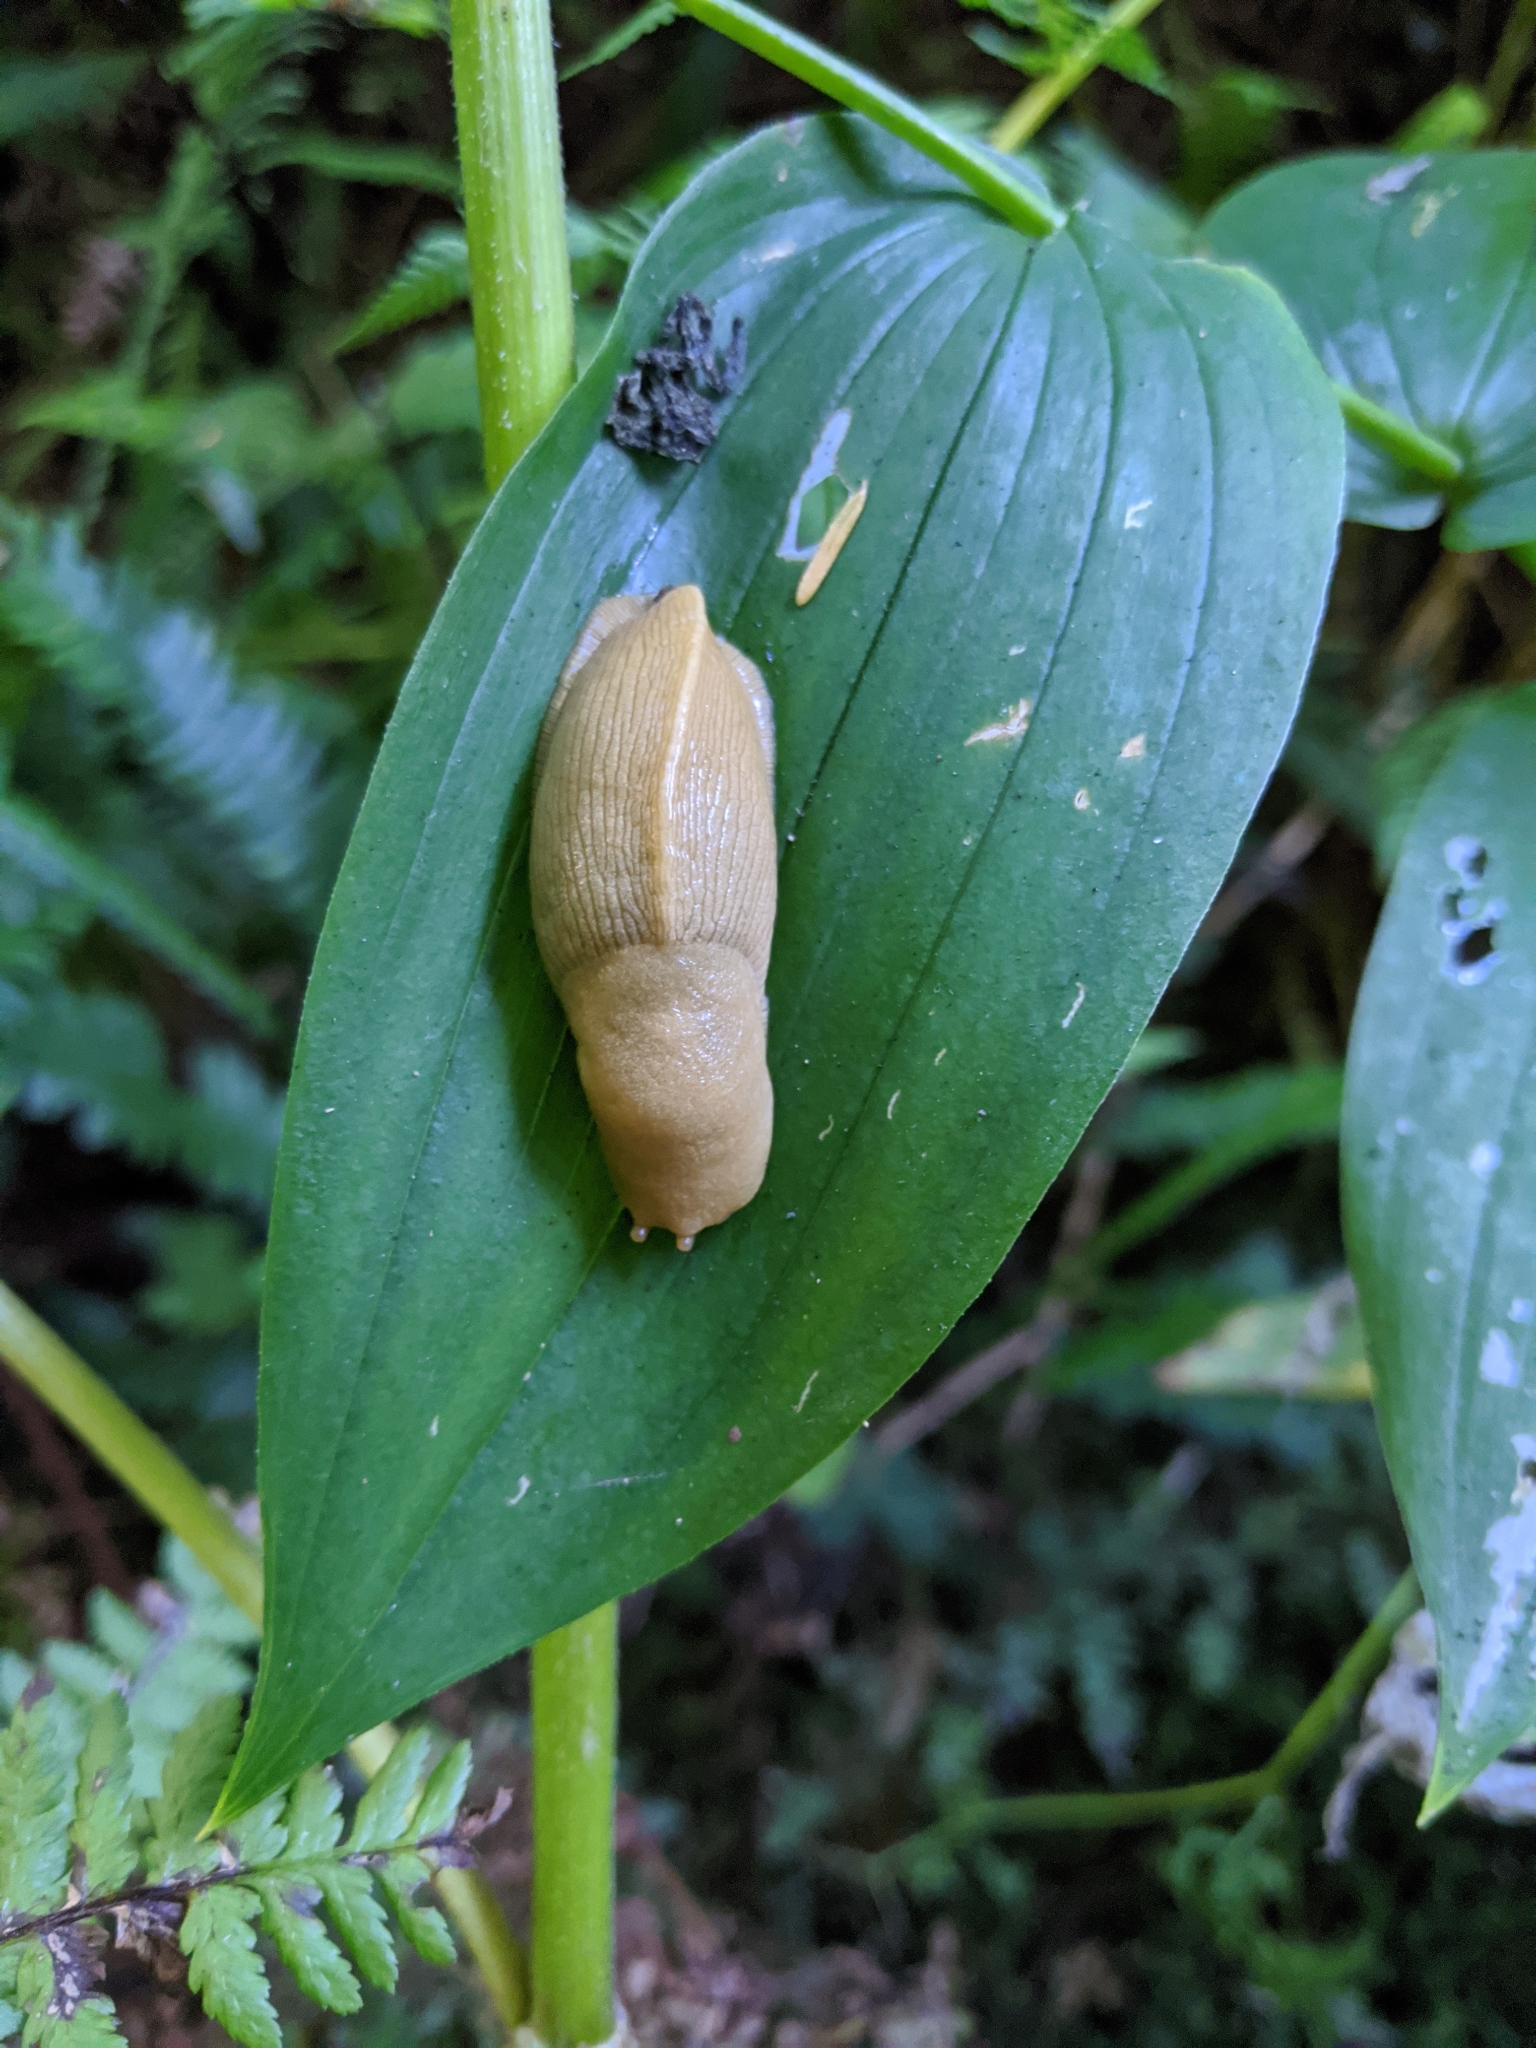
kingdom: Animalia
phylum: Mollusca
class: Gastropoda
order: Stylommatophora
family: Ariolimacidae
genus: Ariolimax
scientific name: Ariolimax columbianus
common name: Pacific banana slug
